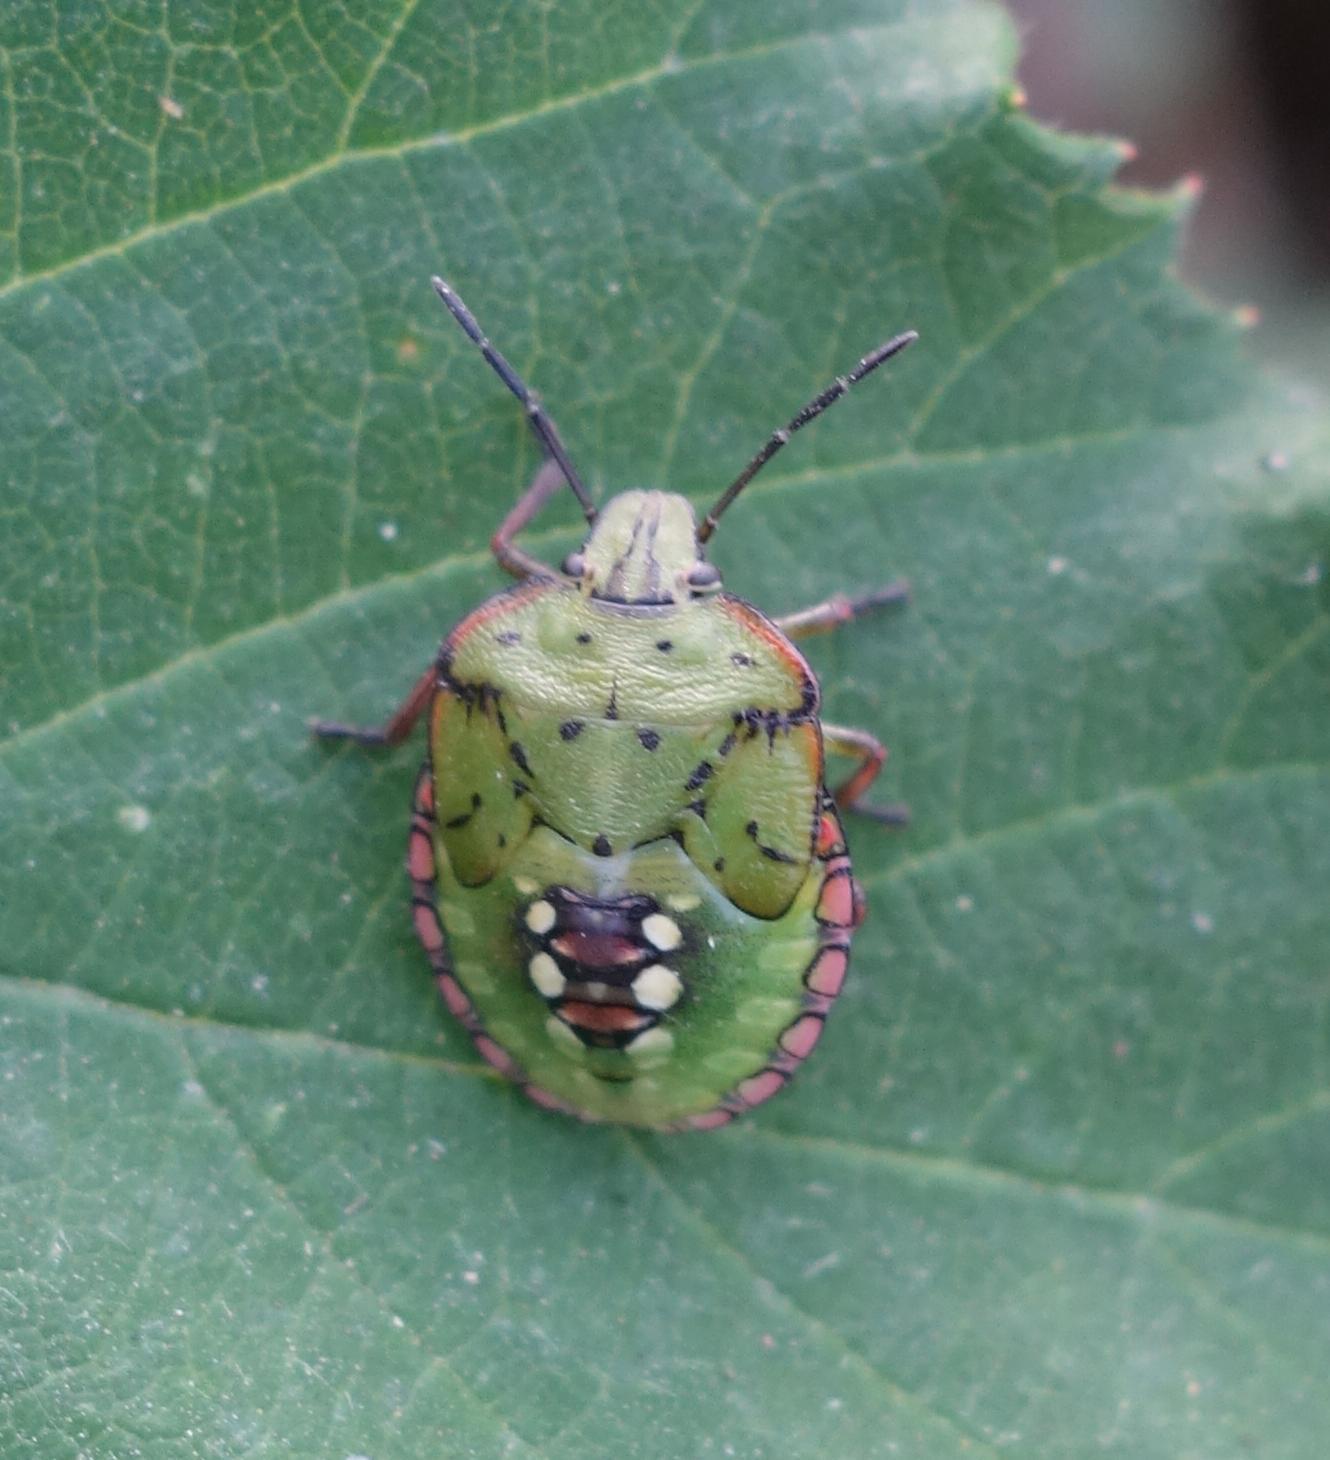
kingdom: Animalia
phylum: Arthropoda
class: Insecta
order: Hemiptera
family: Pentatomidae
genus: Nezara
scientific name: Nezara viridula
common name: Southern green stink bug
